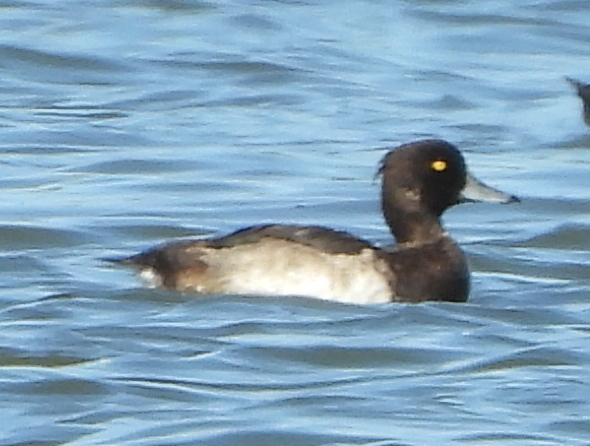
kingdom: Animalia
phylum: Chordata
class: Aves
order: Anseriformes
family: Anatidae
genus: Aythya
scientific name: Aythya fuligula
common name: Tufted duck
